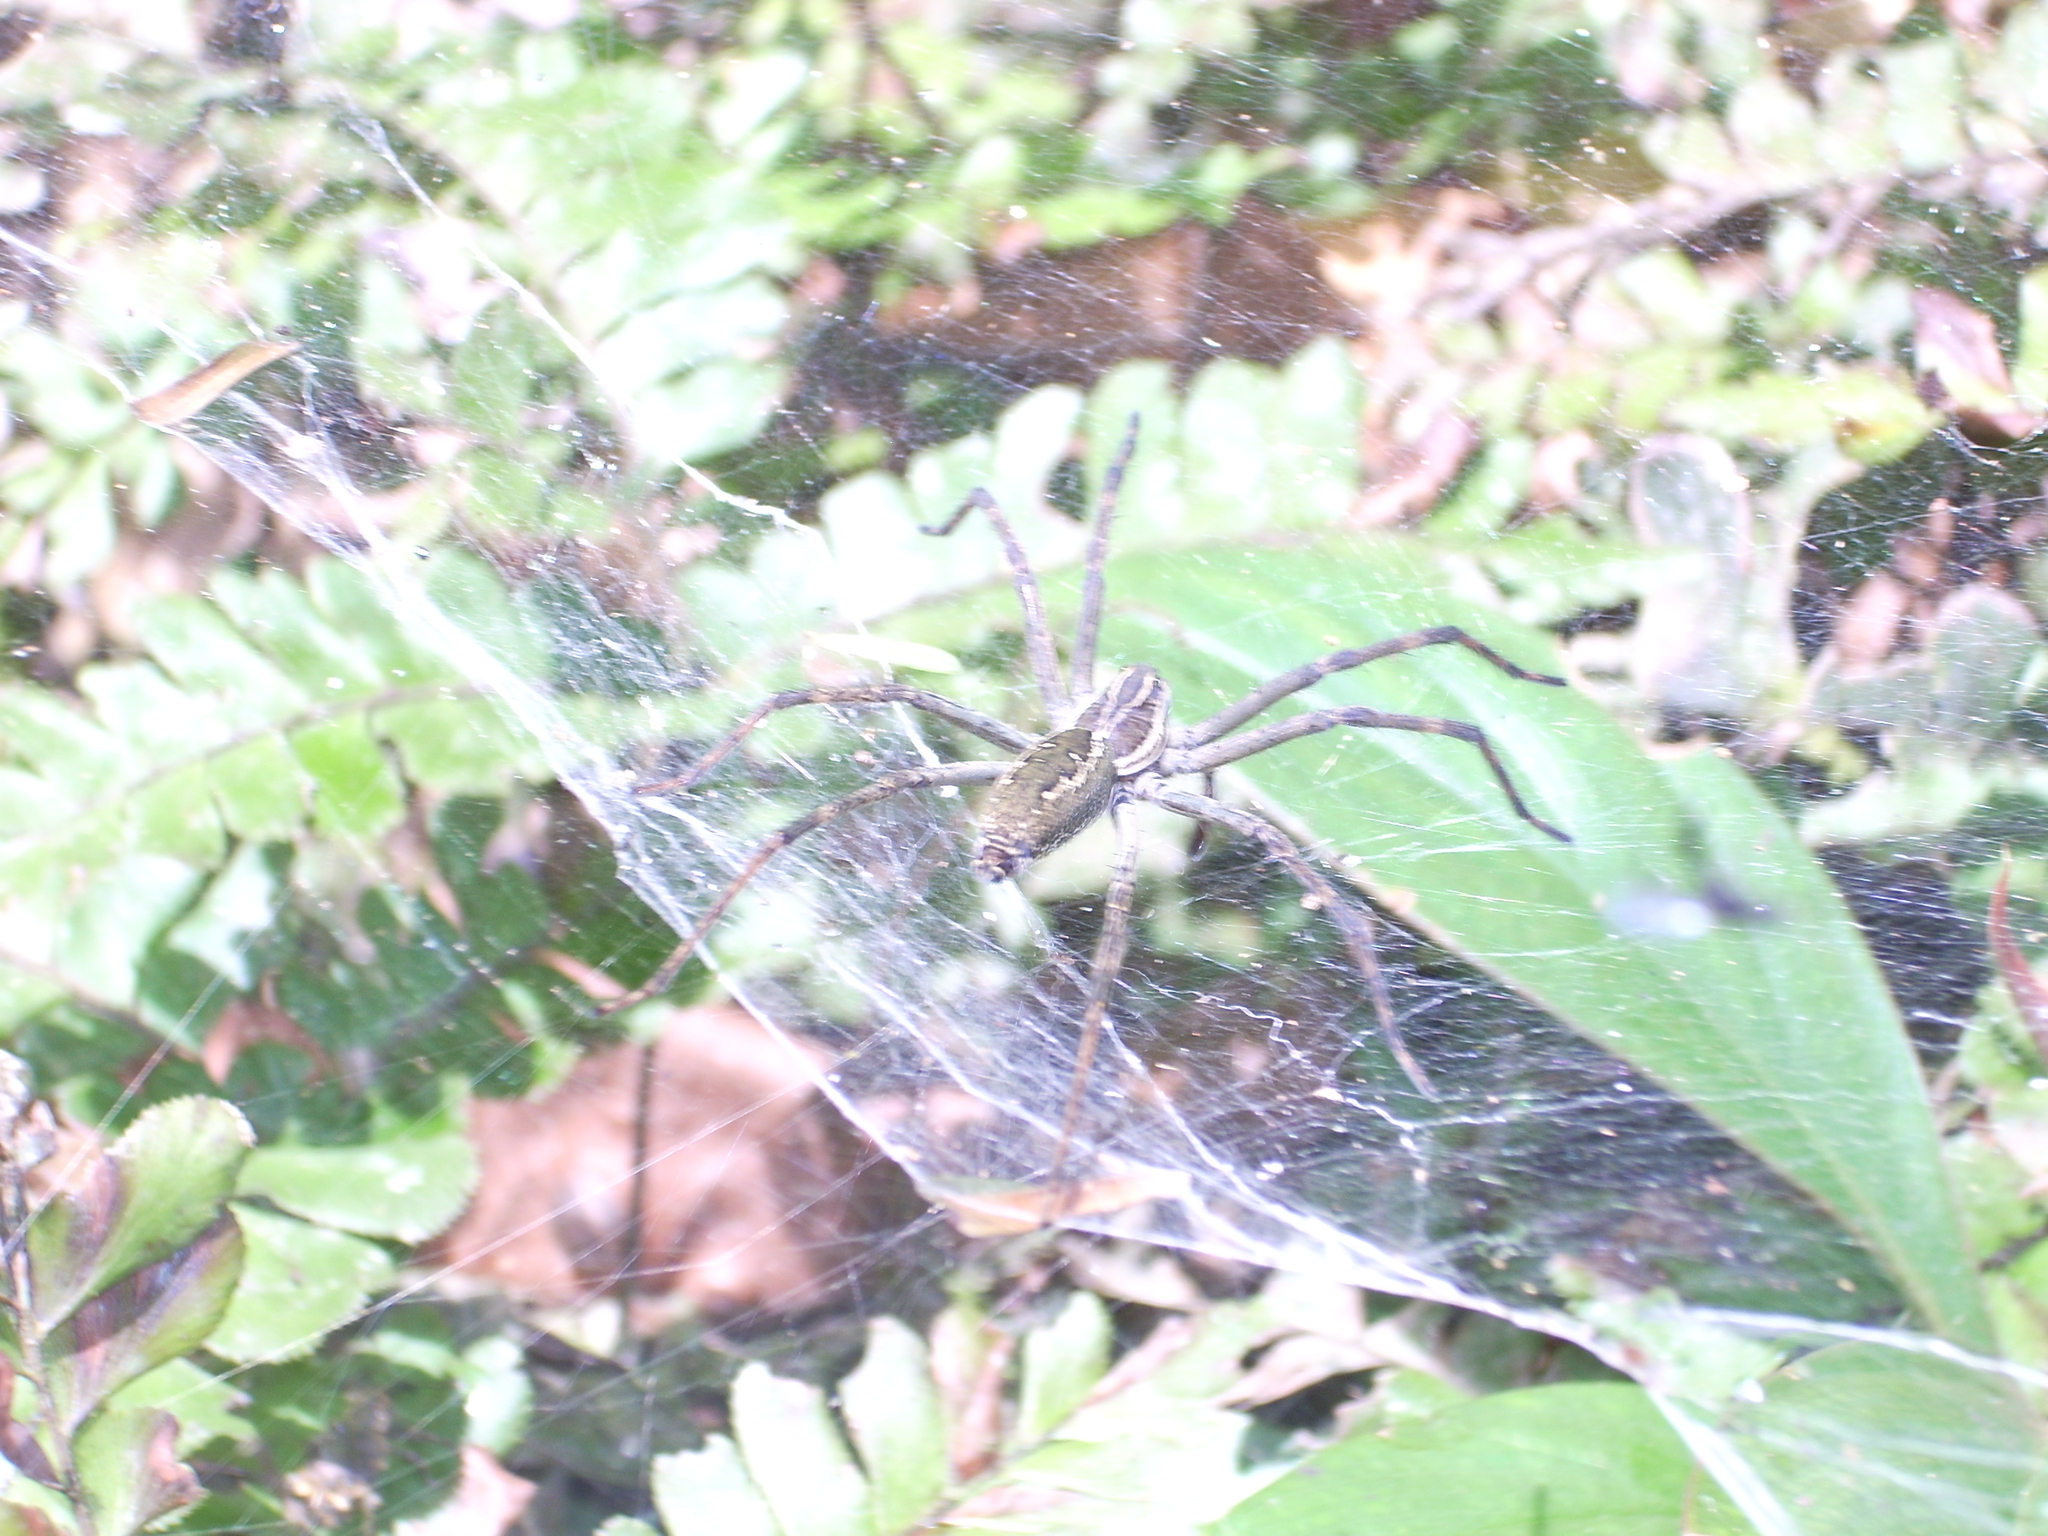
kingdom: Animalia
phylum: Arthropoda
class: Arachnida
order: Araneae
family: Lycosidae
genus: Aglaoctenus
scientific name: Aglaoctenus lagotis
